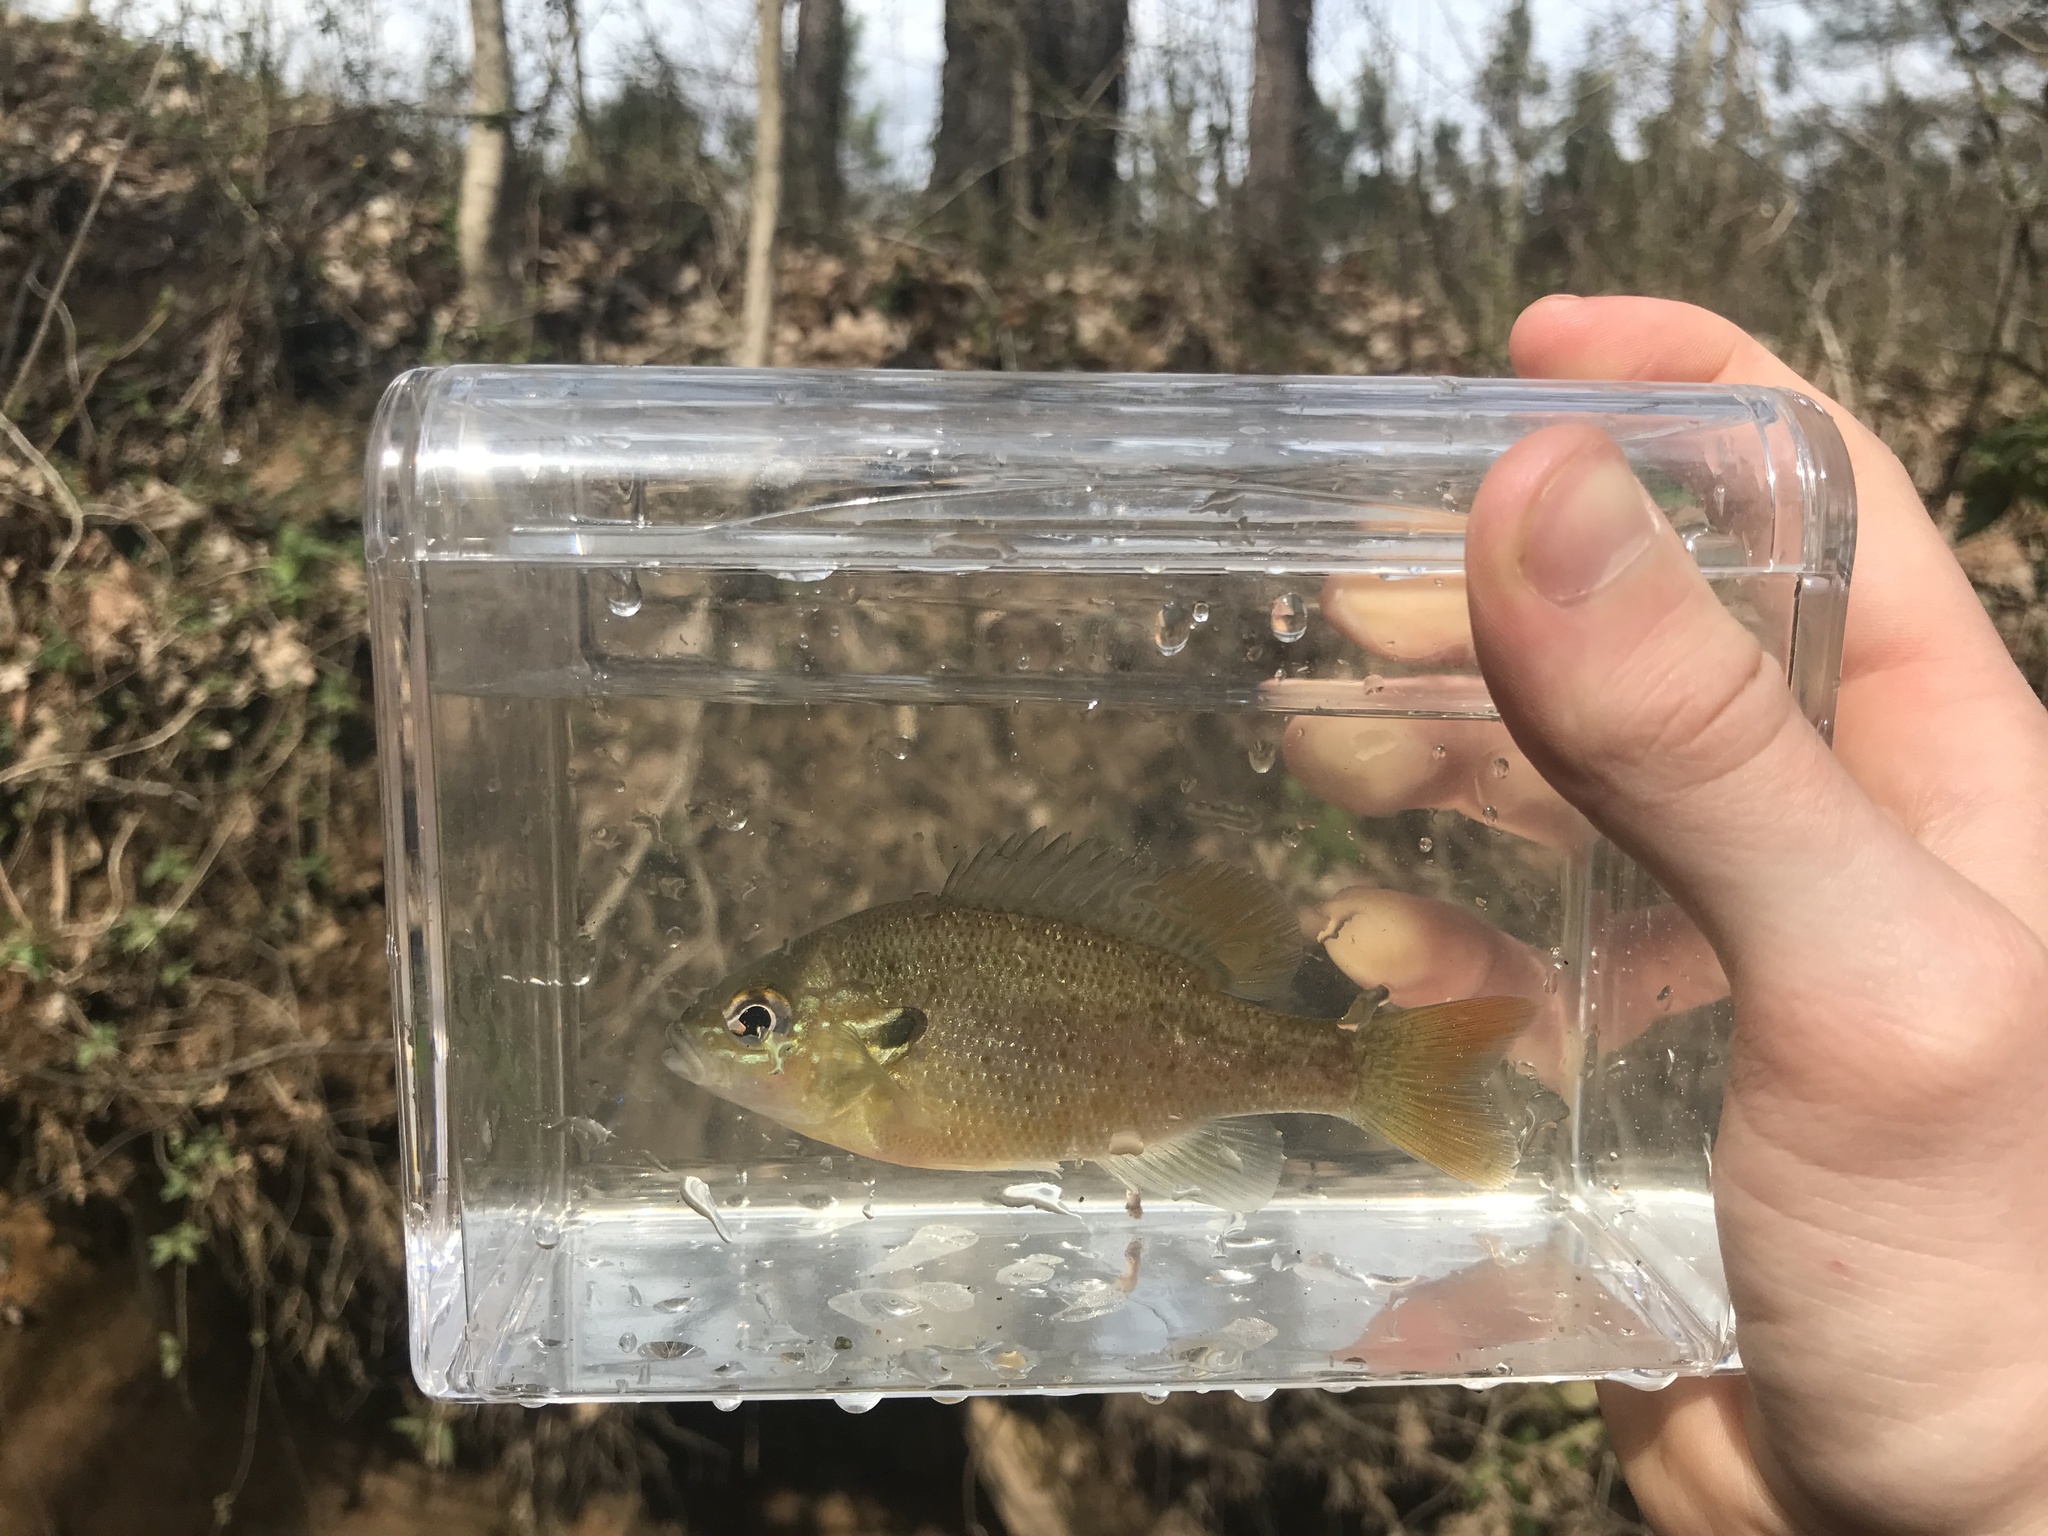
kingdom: Animalia
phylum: Chordata
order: Perciformes
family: Centrarchidae
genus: Lepomis
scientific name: Lepomis auritus
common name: Redbreast sunfish
